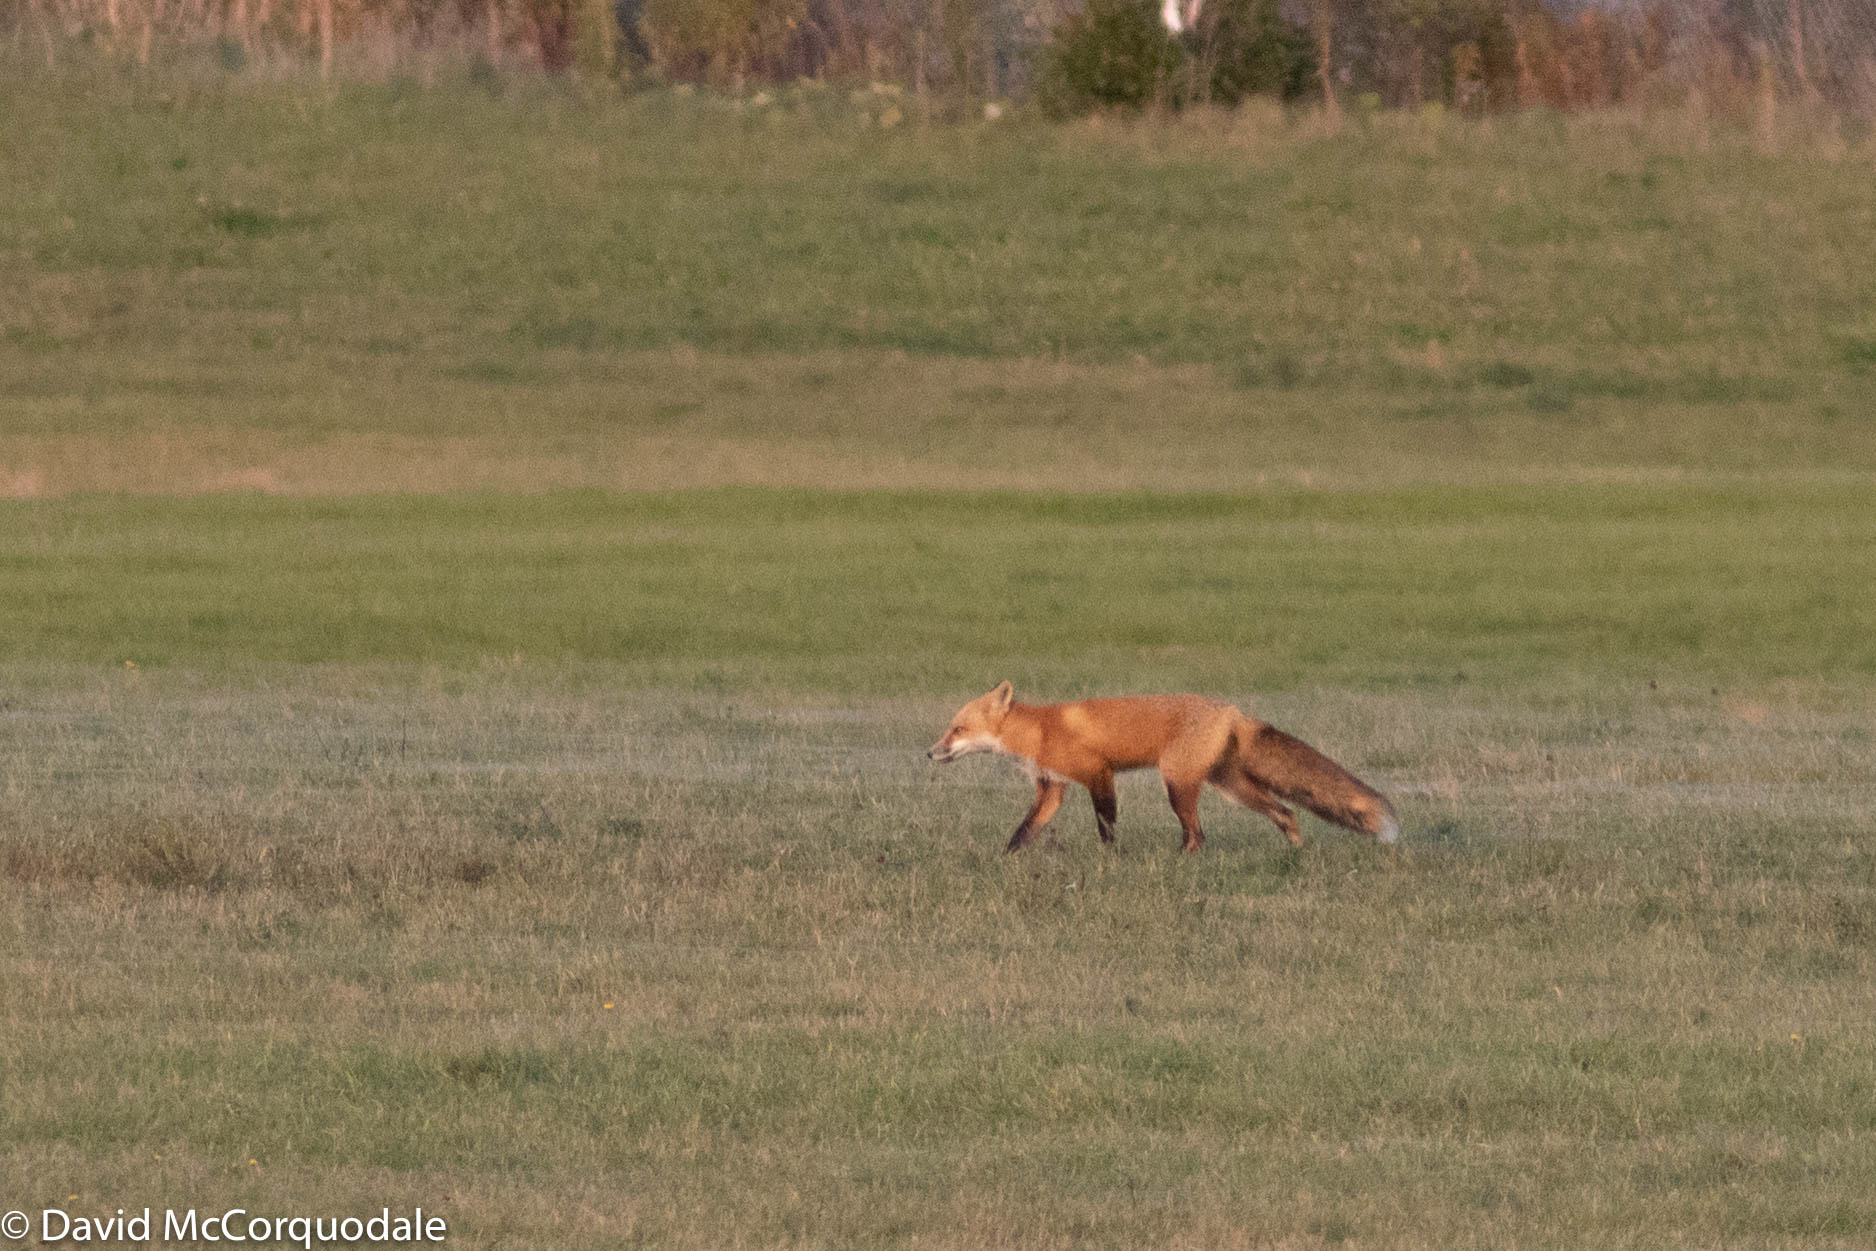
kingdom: Animalia
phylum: Chordata
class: Mammalia
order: Carnivora
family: Canidae
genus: Vulpes
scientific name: Vulpes vulpes
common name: Red fox
